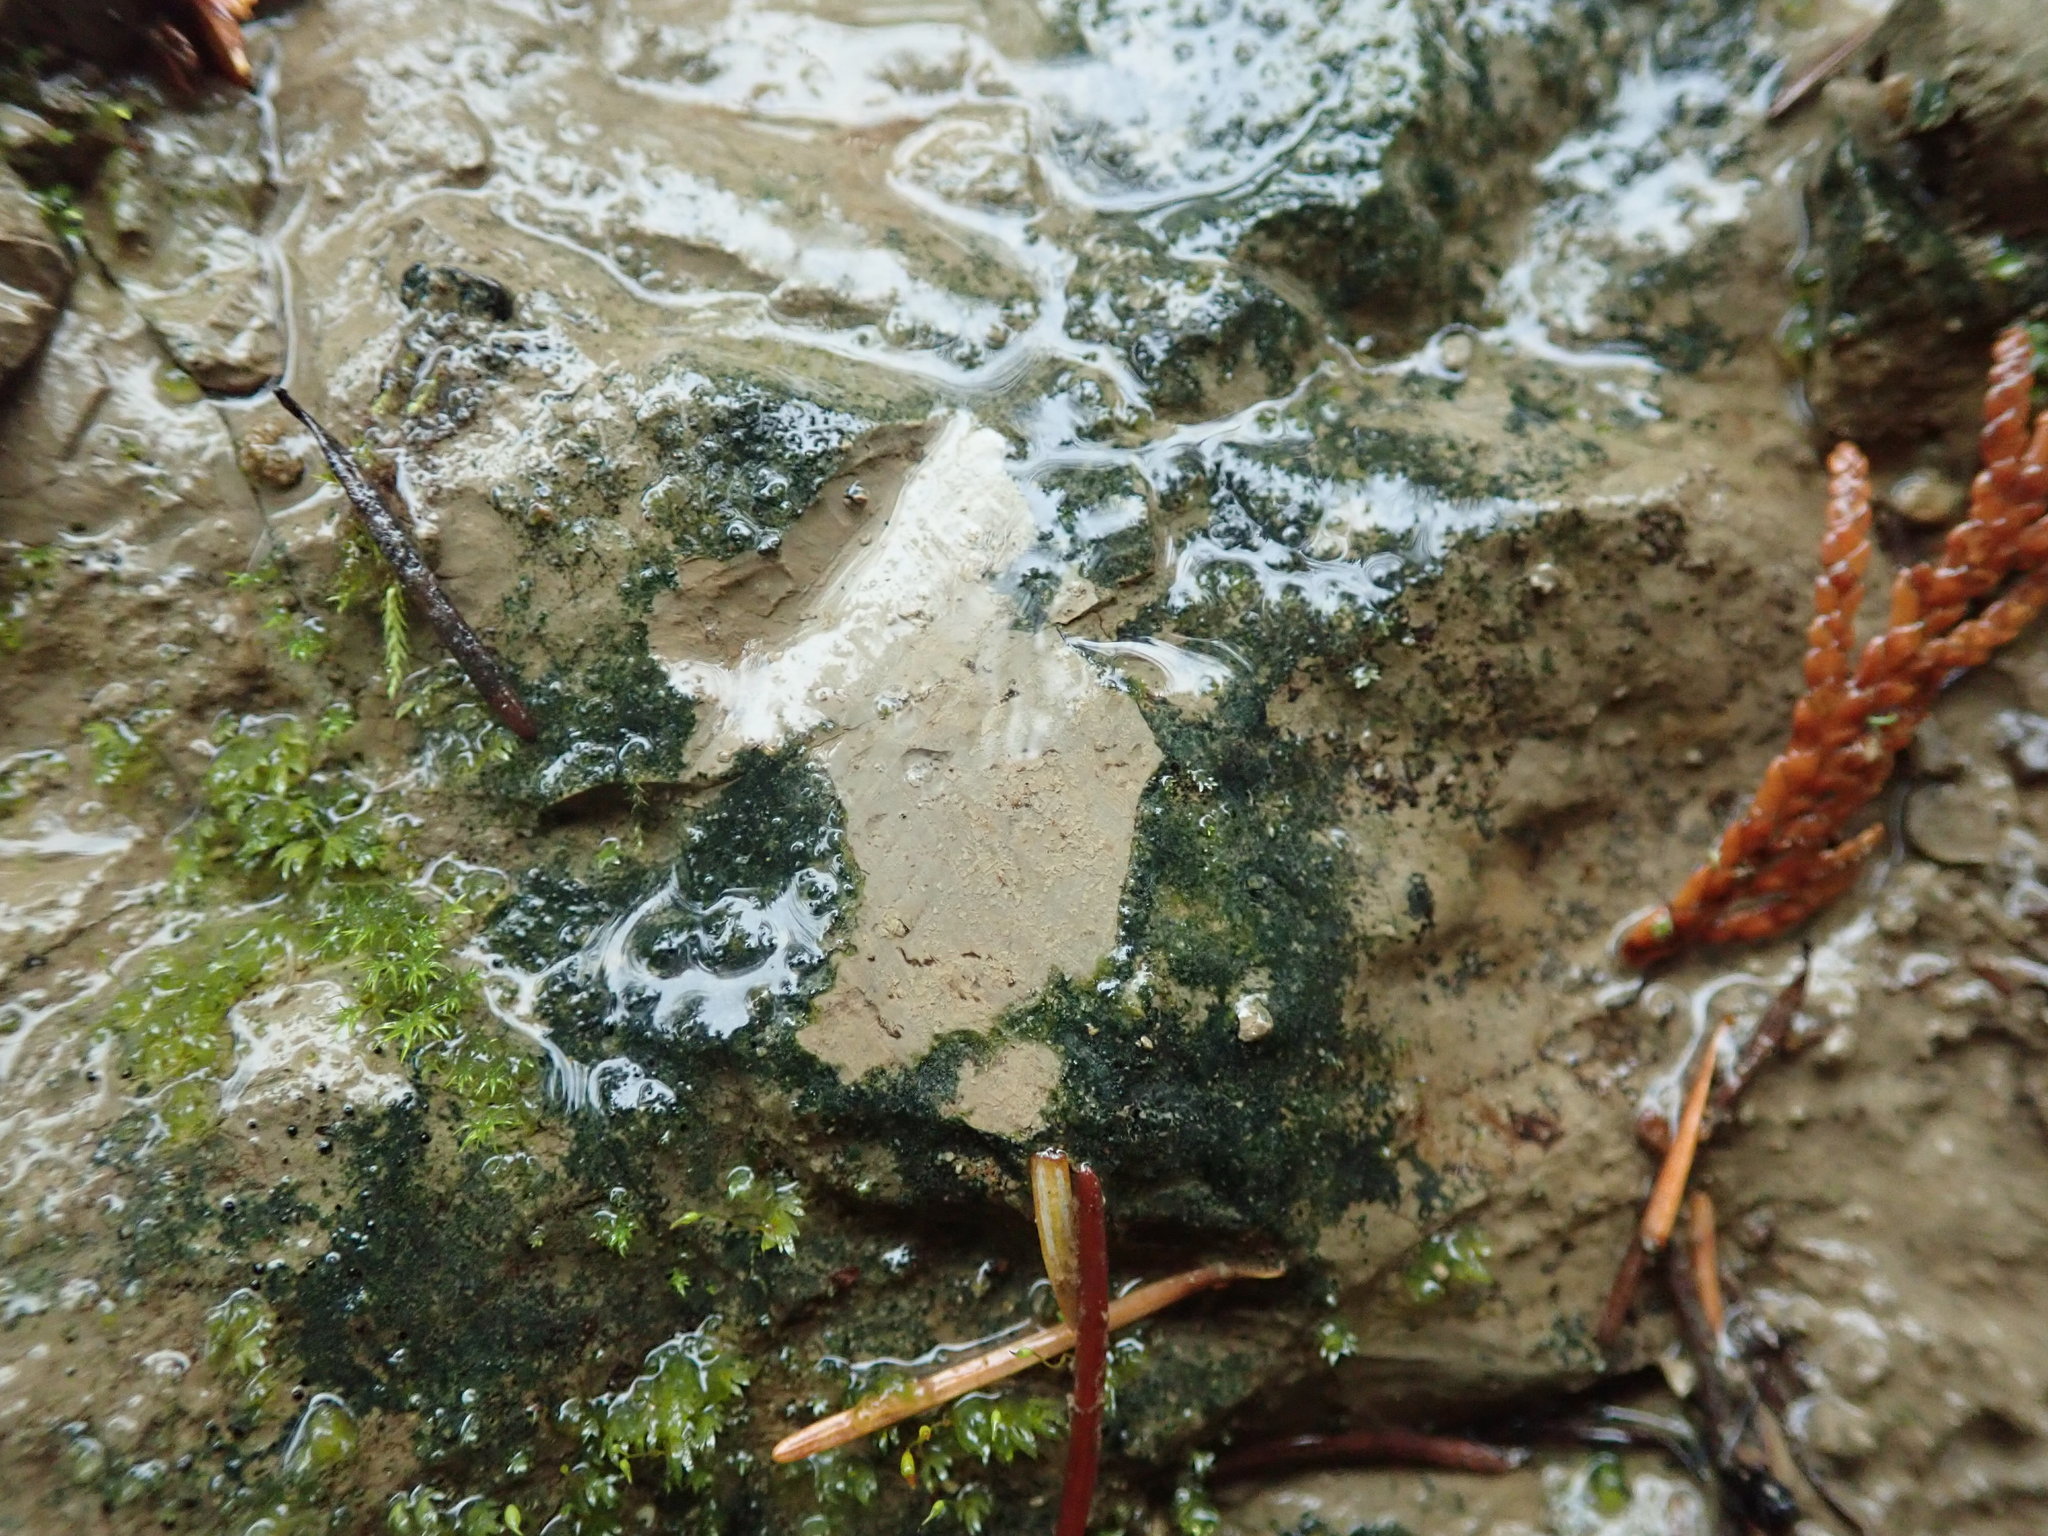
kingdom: Bacteria
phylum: Cyanobacteria
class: Cyanobacteriia
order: Cyanobacteriales
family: Nostocaceae
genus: Nostoc
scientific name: Nostoc
